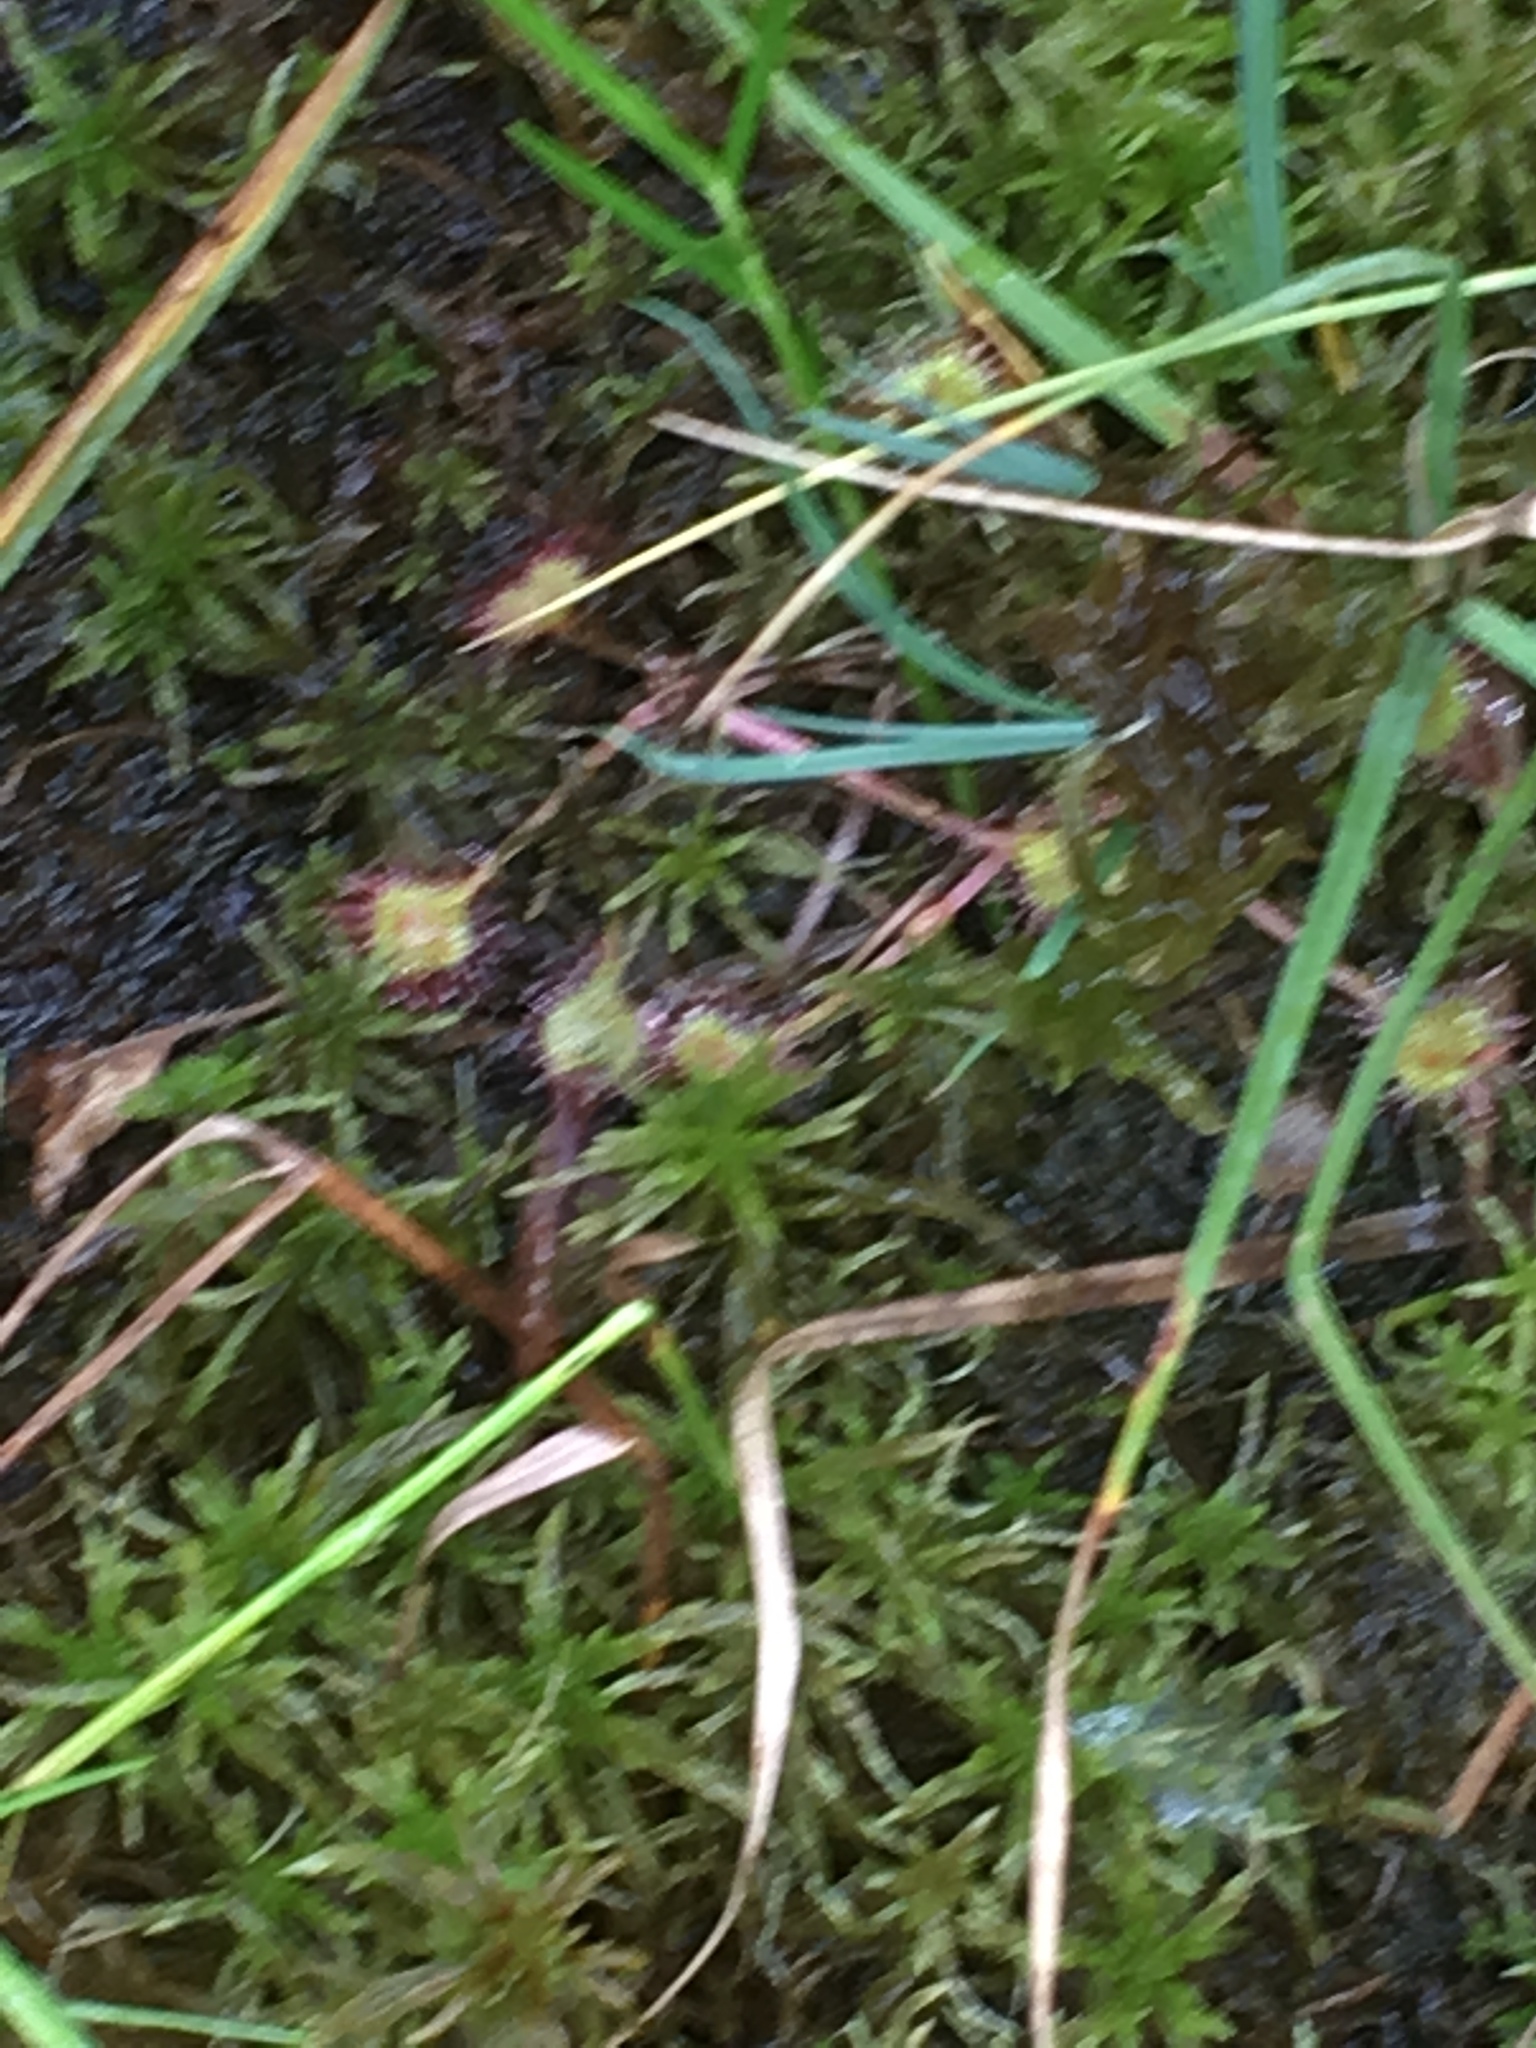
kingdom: Plantae
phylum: Tracheophyta
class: Magnoliopsida
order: Caryophyllales
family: Droseraceae
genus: Drosera
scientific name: Drosera rotundifolia
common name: Round-leaved sundew
